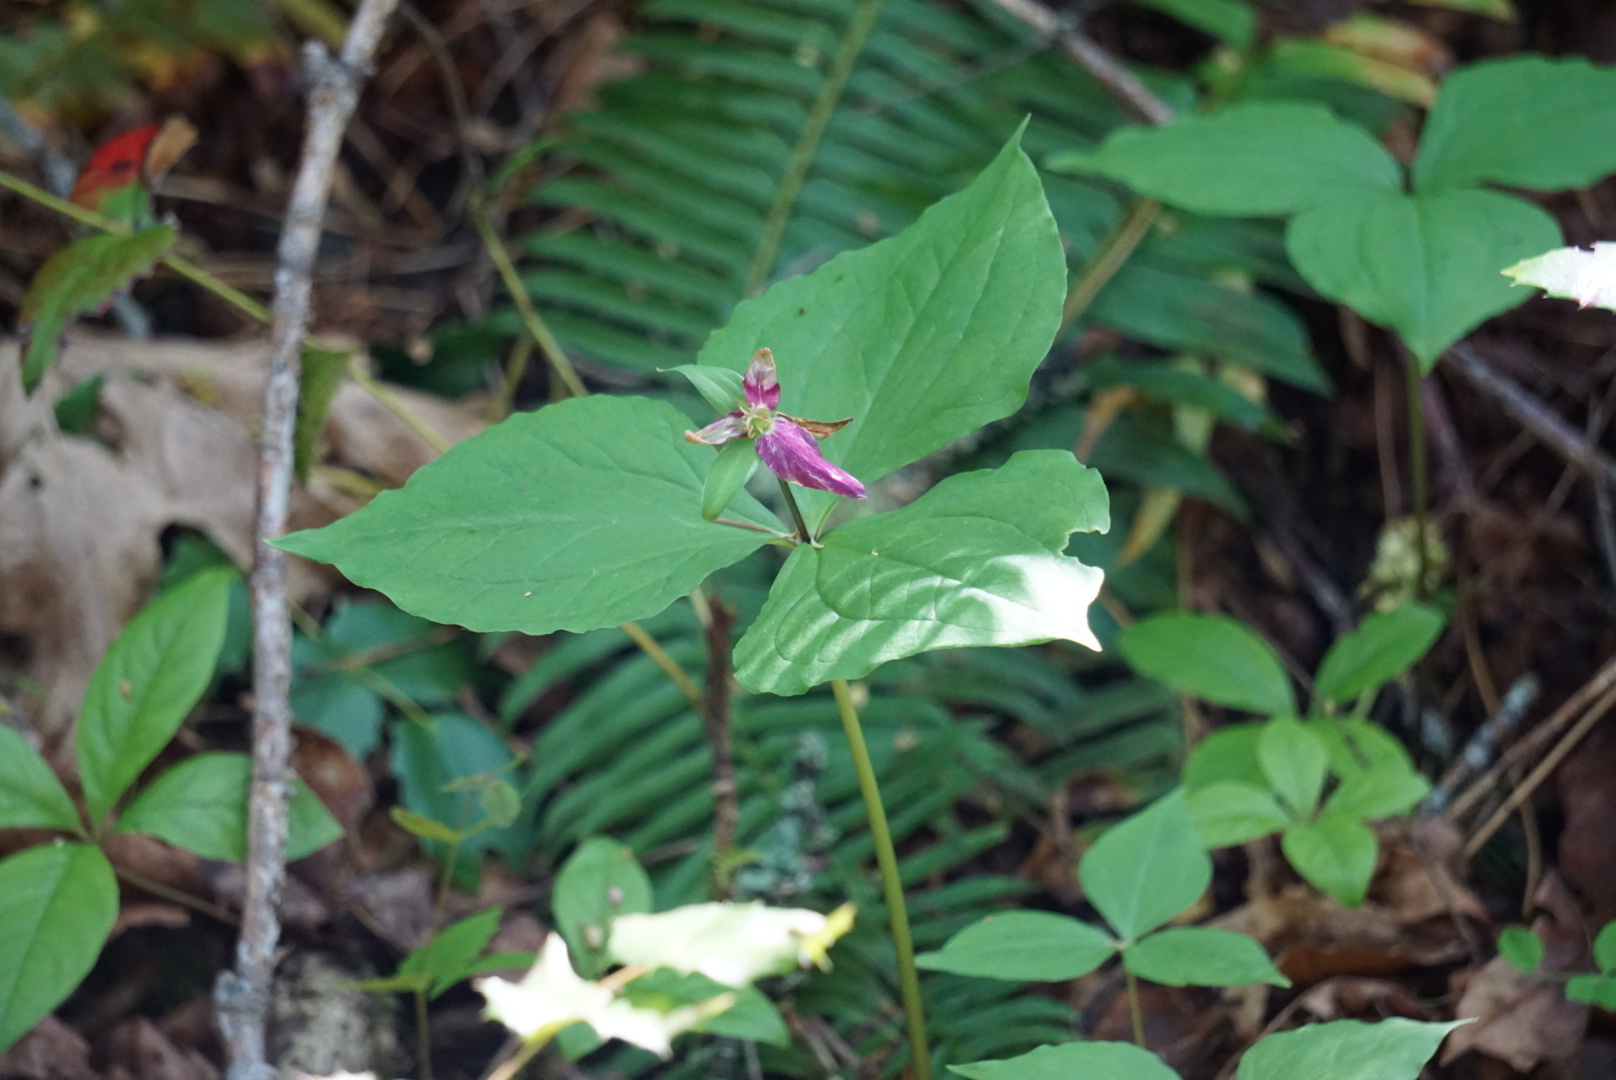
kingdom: Plantae
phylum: Tracheophyta
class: Liliopsida
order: Liliales
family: Melanthiaceae
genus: Trillium
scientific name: Trillium ovatum
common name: Pacific trillium
